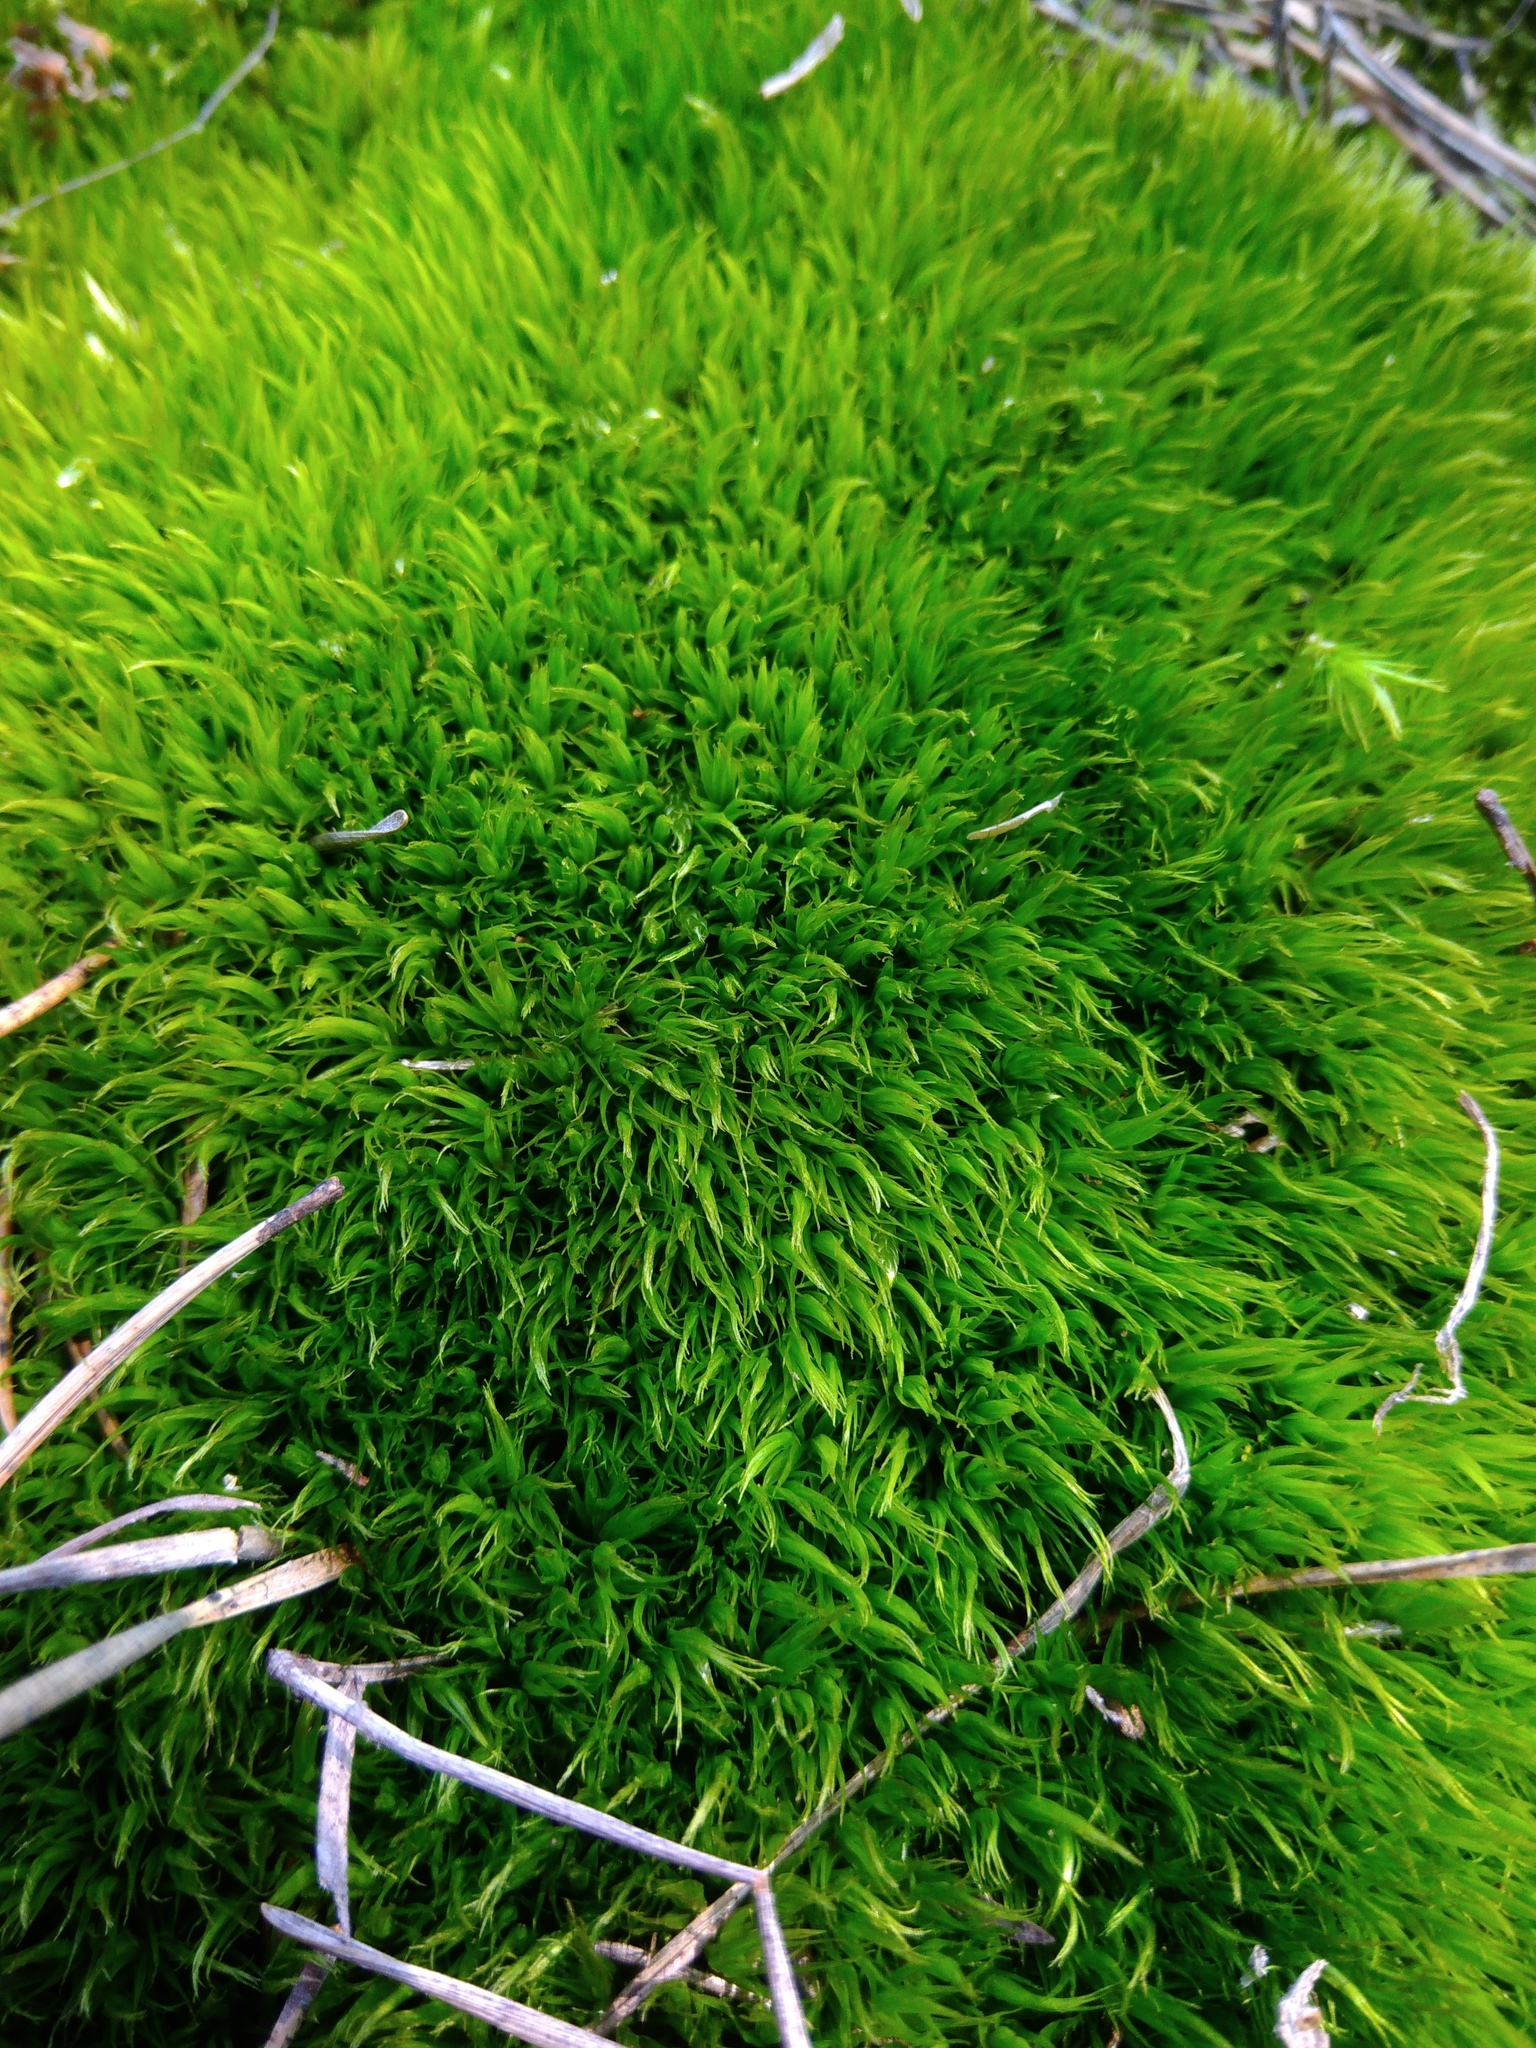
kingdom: Plantae
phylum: Bryophyta
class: Bryopsida
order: Dicranales
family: Dicranaceae
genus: Dicranum
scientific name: Dicranum scoparium
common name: Broom fork-moss
